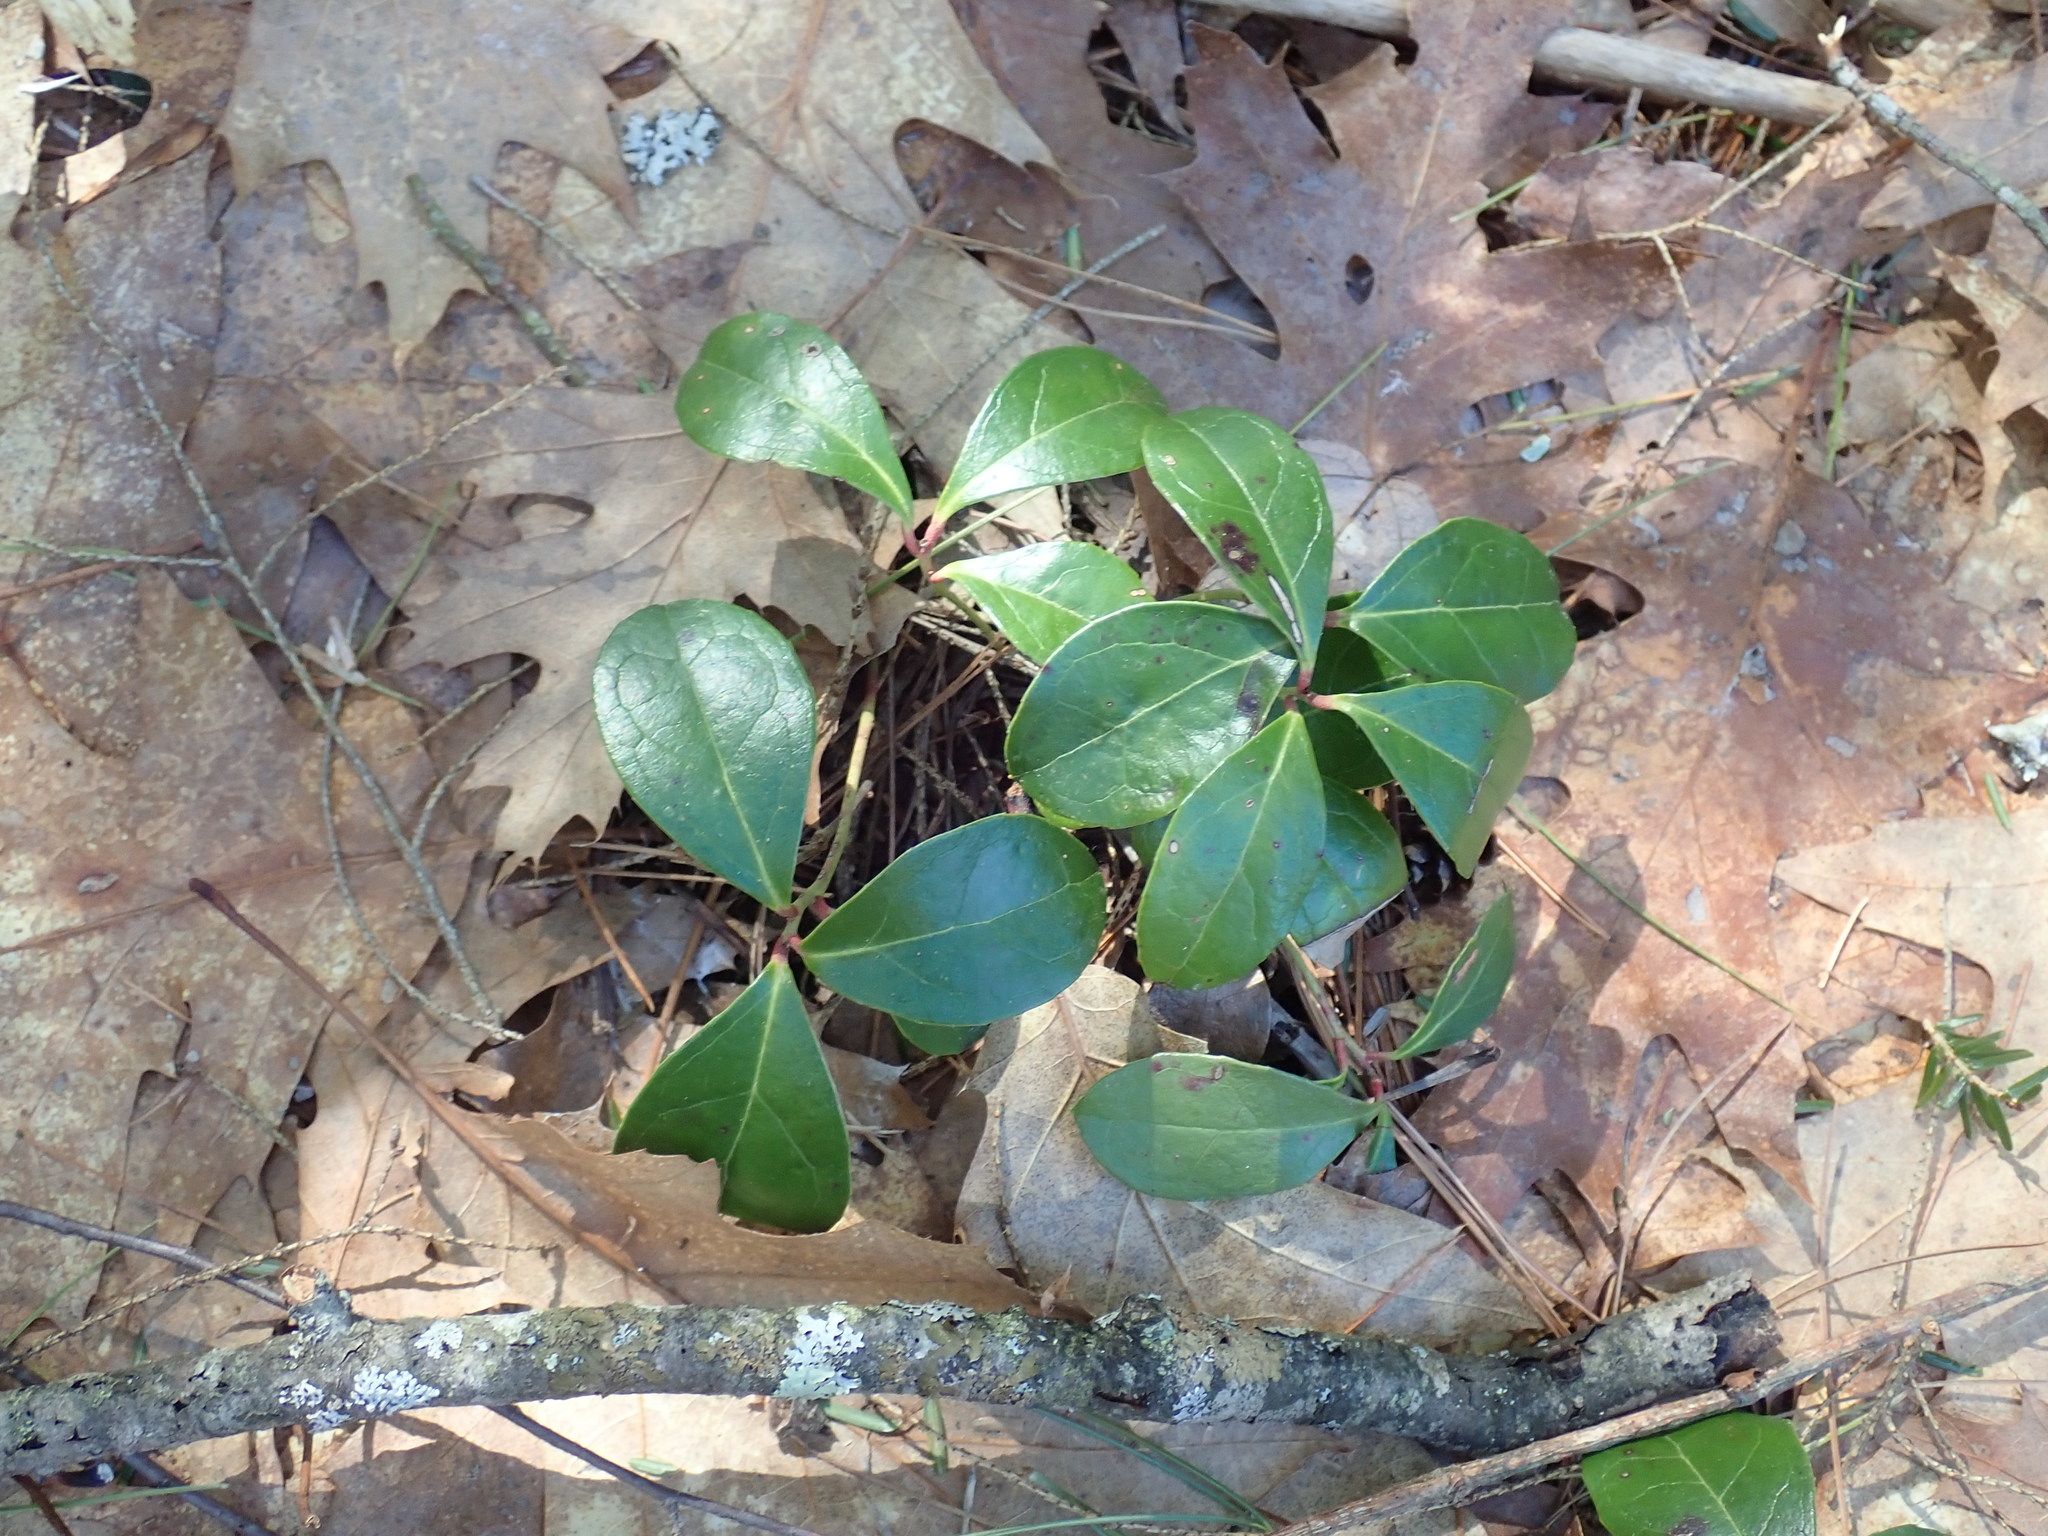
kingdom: Plantae
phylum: Tracheophyta
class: Magnoliopsida
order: Ericales
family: Ericaceae
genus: Gaultheria
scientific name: Gaultheria procumbens
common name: Checkerberry
